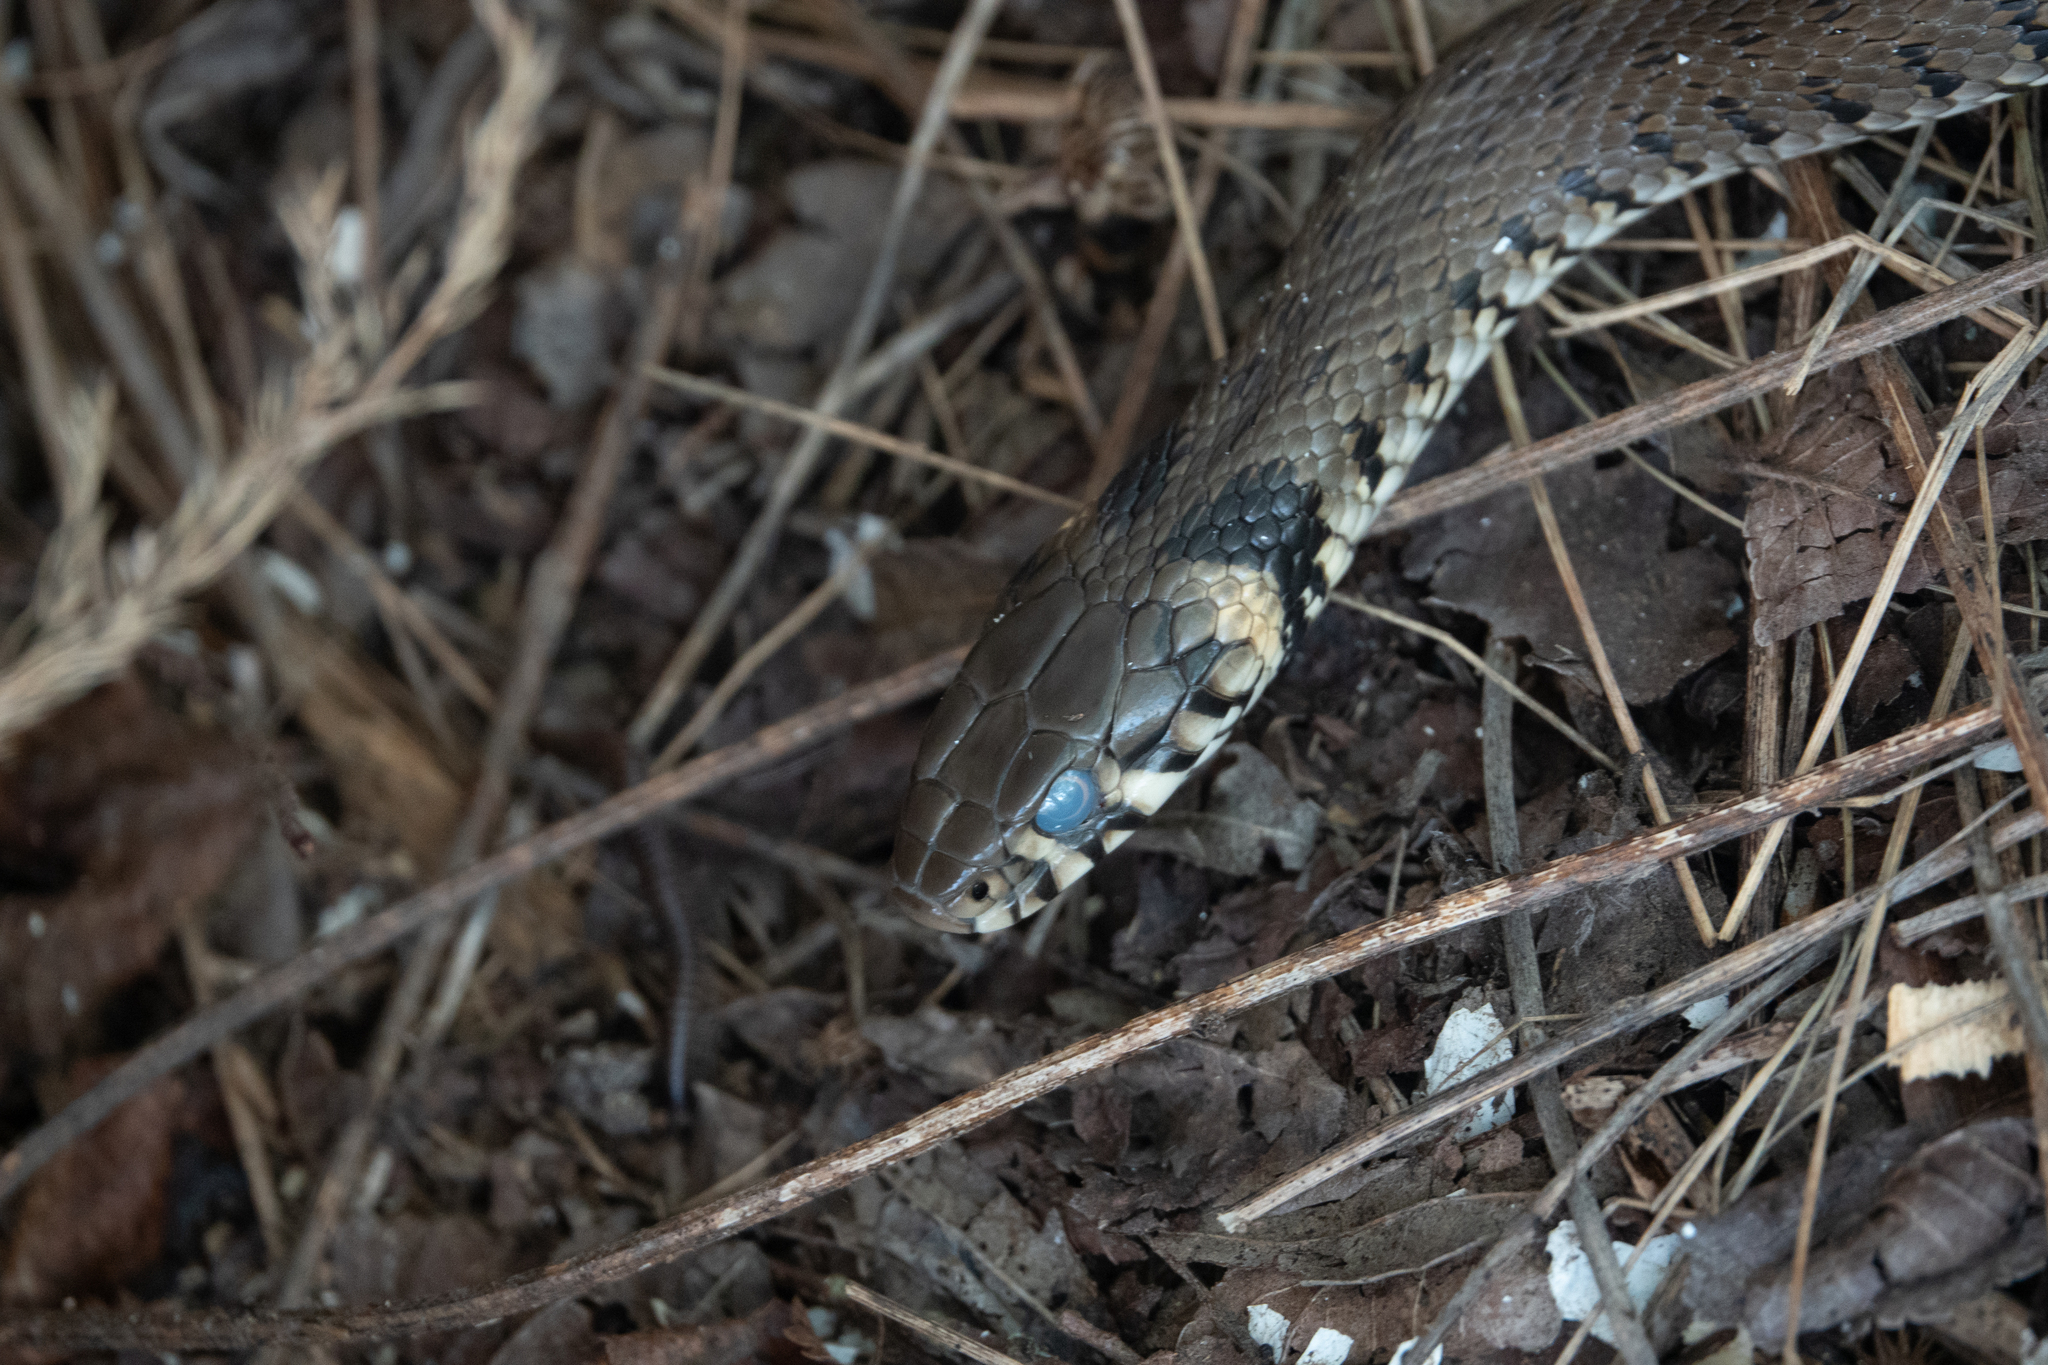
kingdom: Animalia
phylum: Chordata
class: Squamata
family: Colubridae
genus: Natrix
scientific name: Natrix natrix
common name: Grass snake
